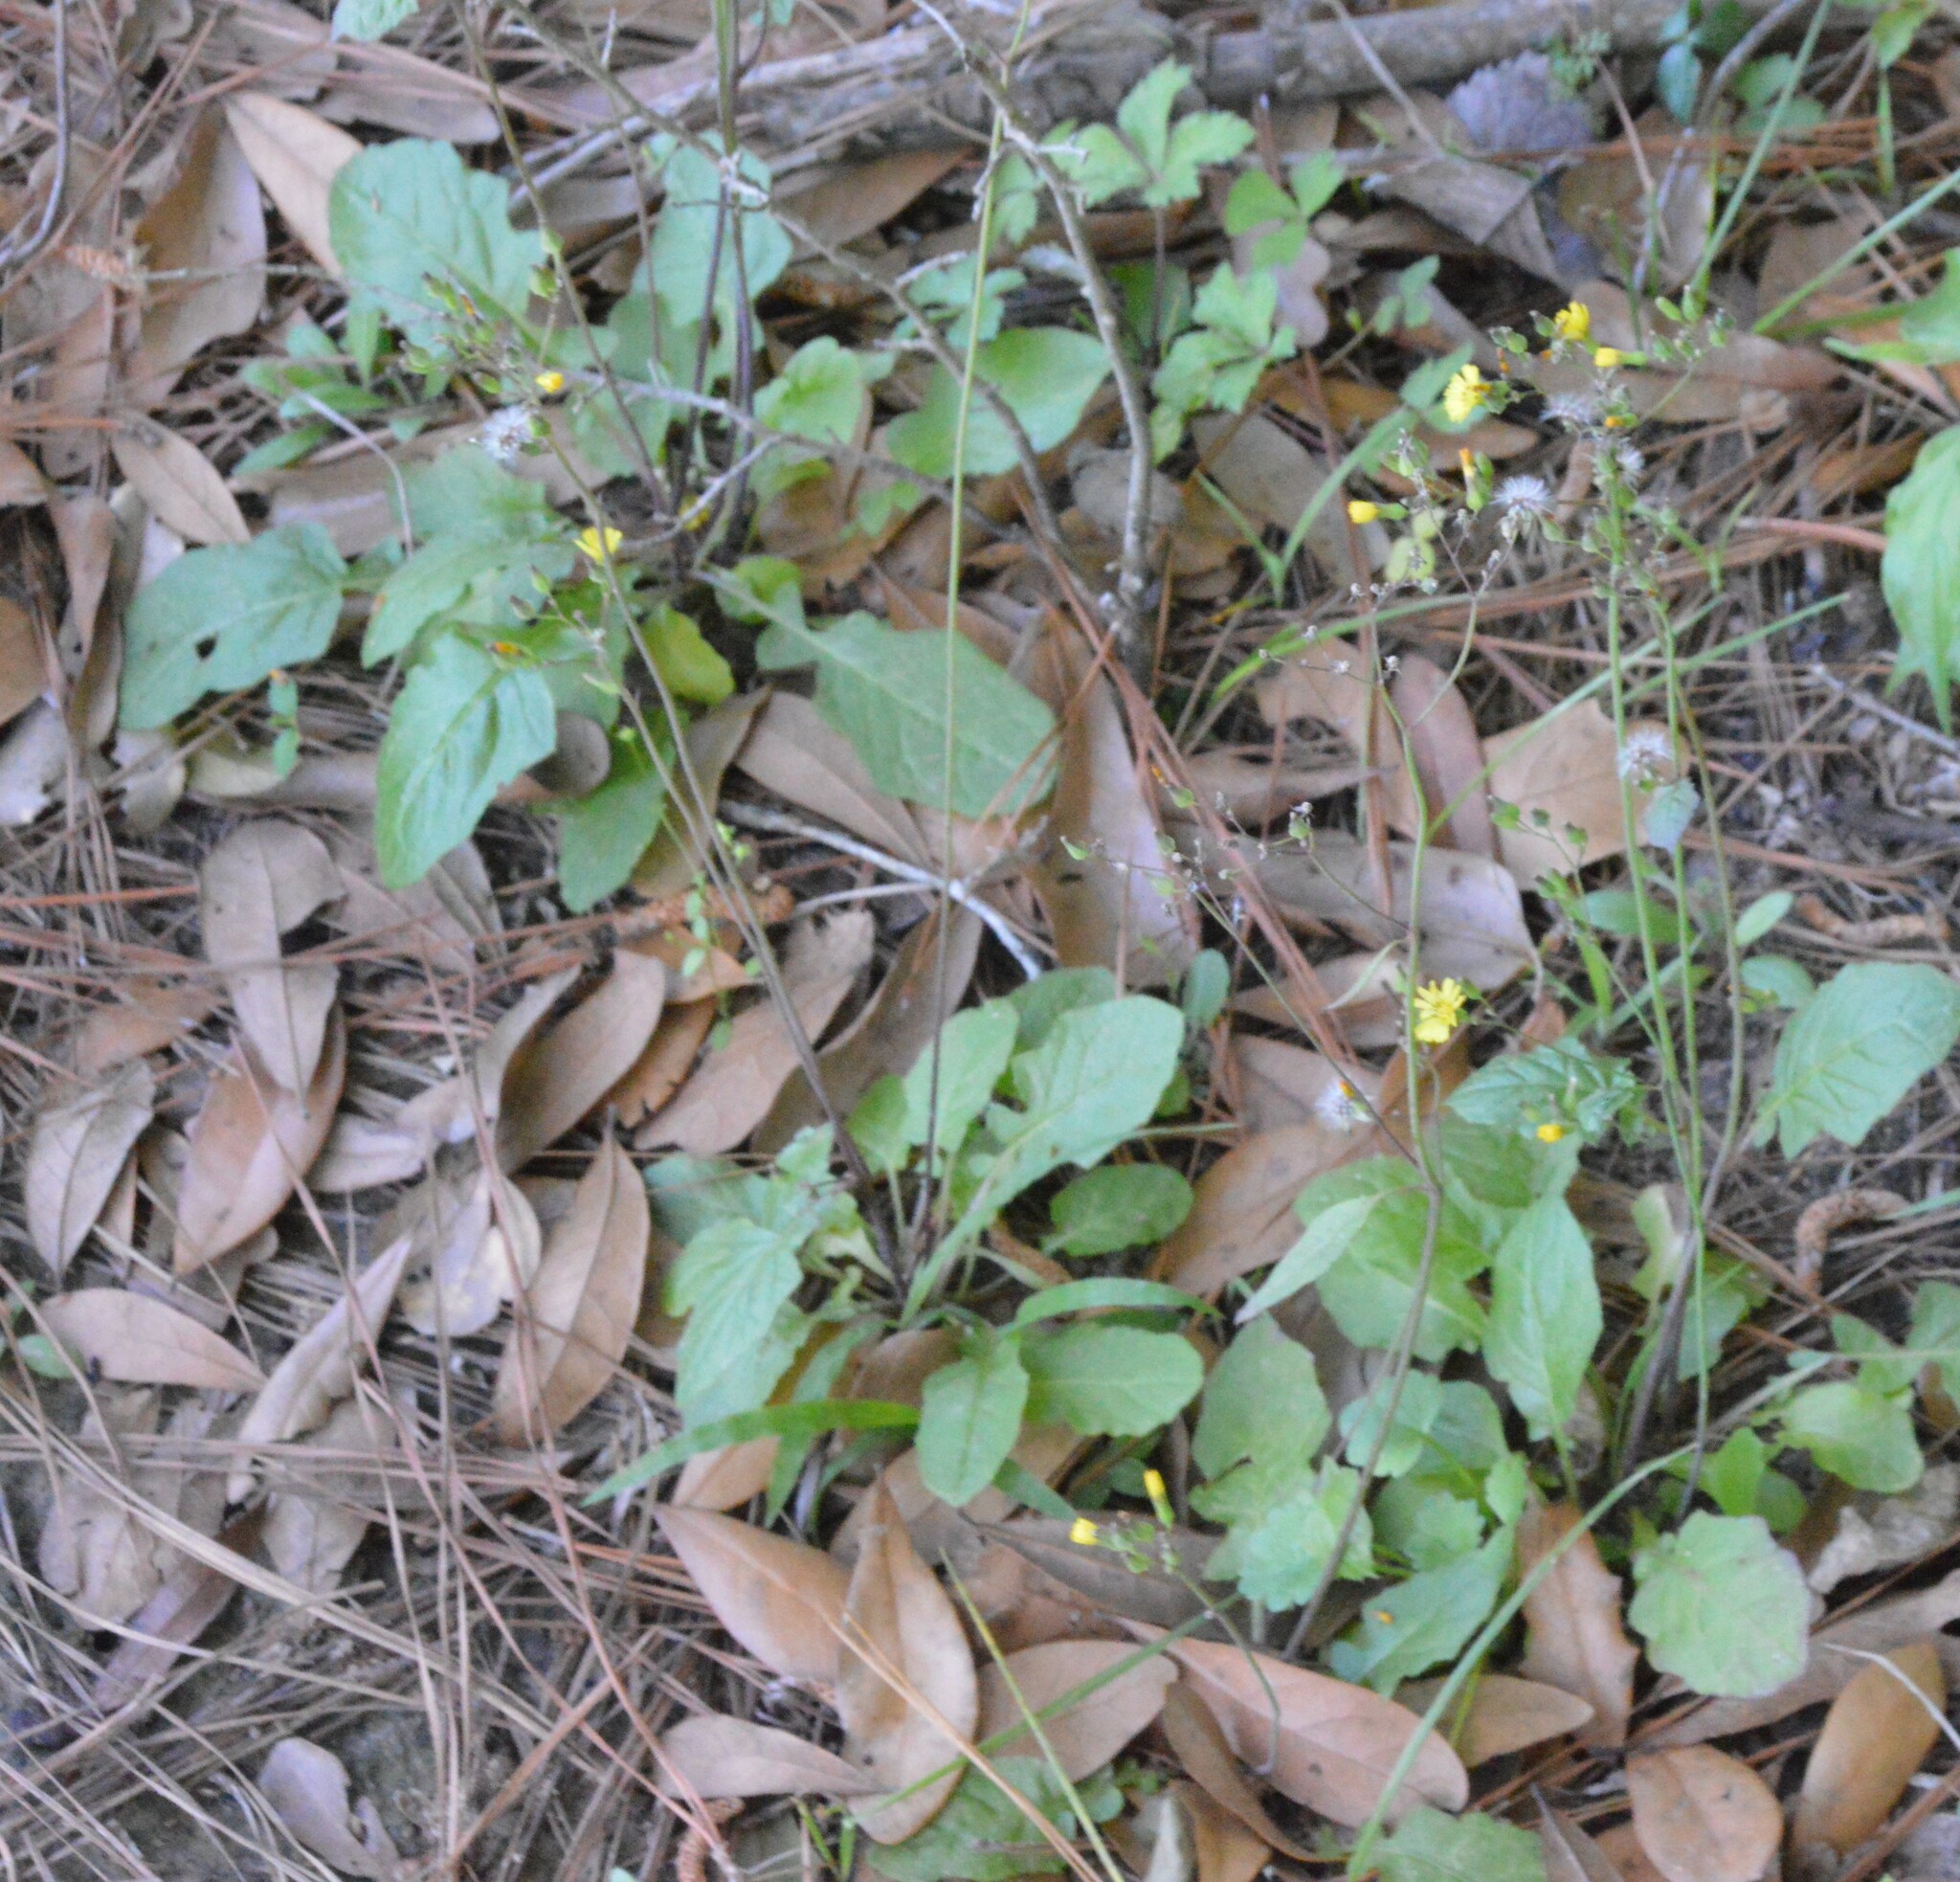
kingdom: Plantae
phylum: Tracheophyta
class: Magnoliopsida
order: Asterales
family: Asteraceae
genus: Youngia
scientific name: Youngia japonica
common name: Oriental false hawksbeard
